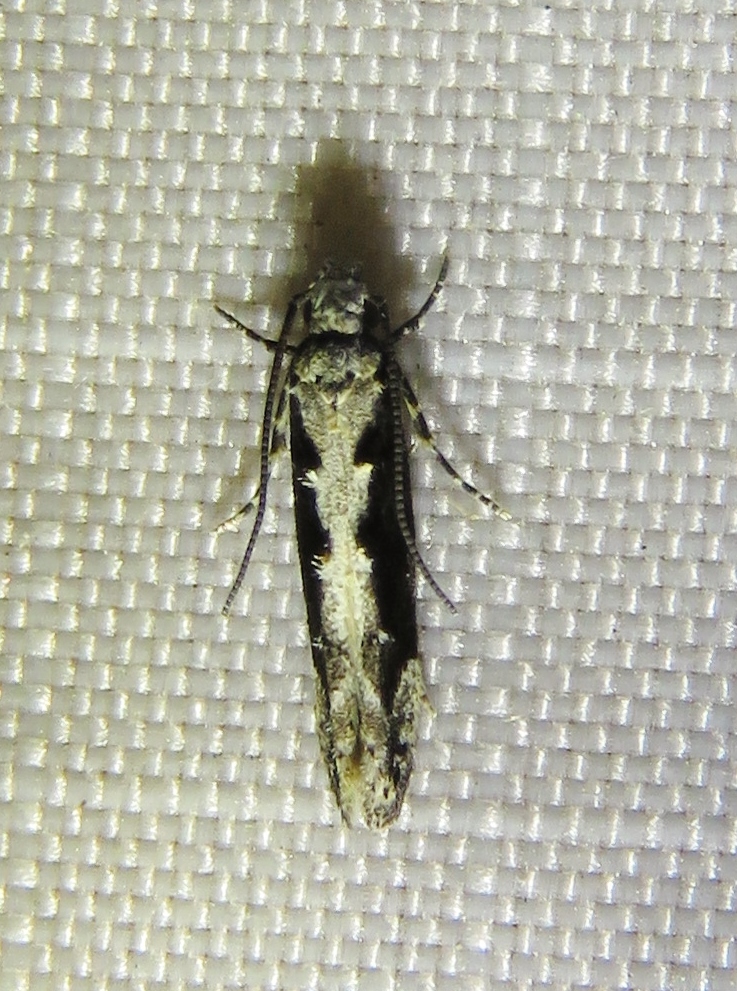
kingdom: Animalia
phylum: Arthropoda
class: Insecta
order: Lepidoptera
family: Gelechiidae
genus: Coleotechnites
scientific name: Coleotechnites florae
